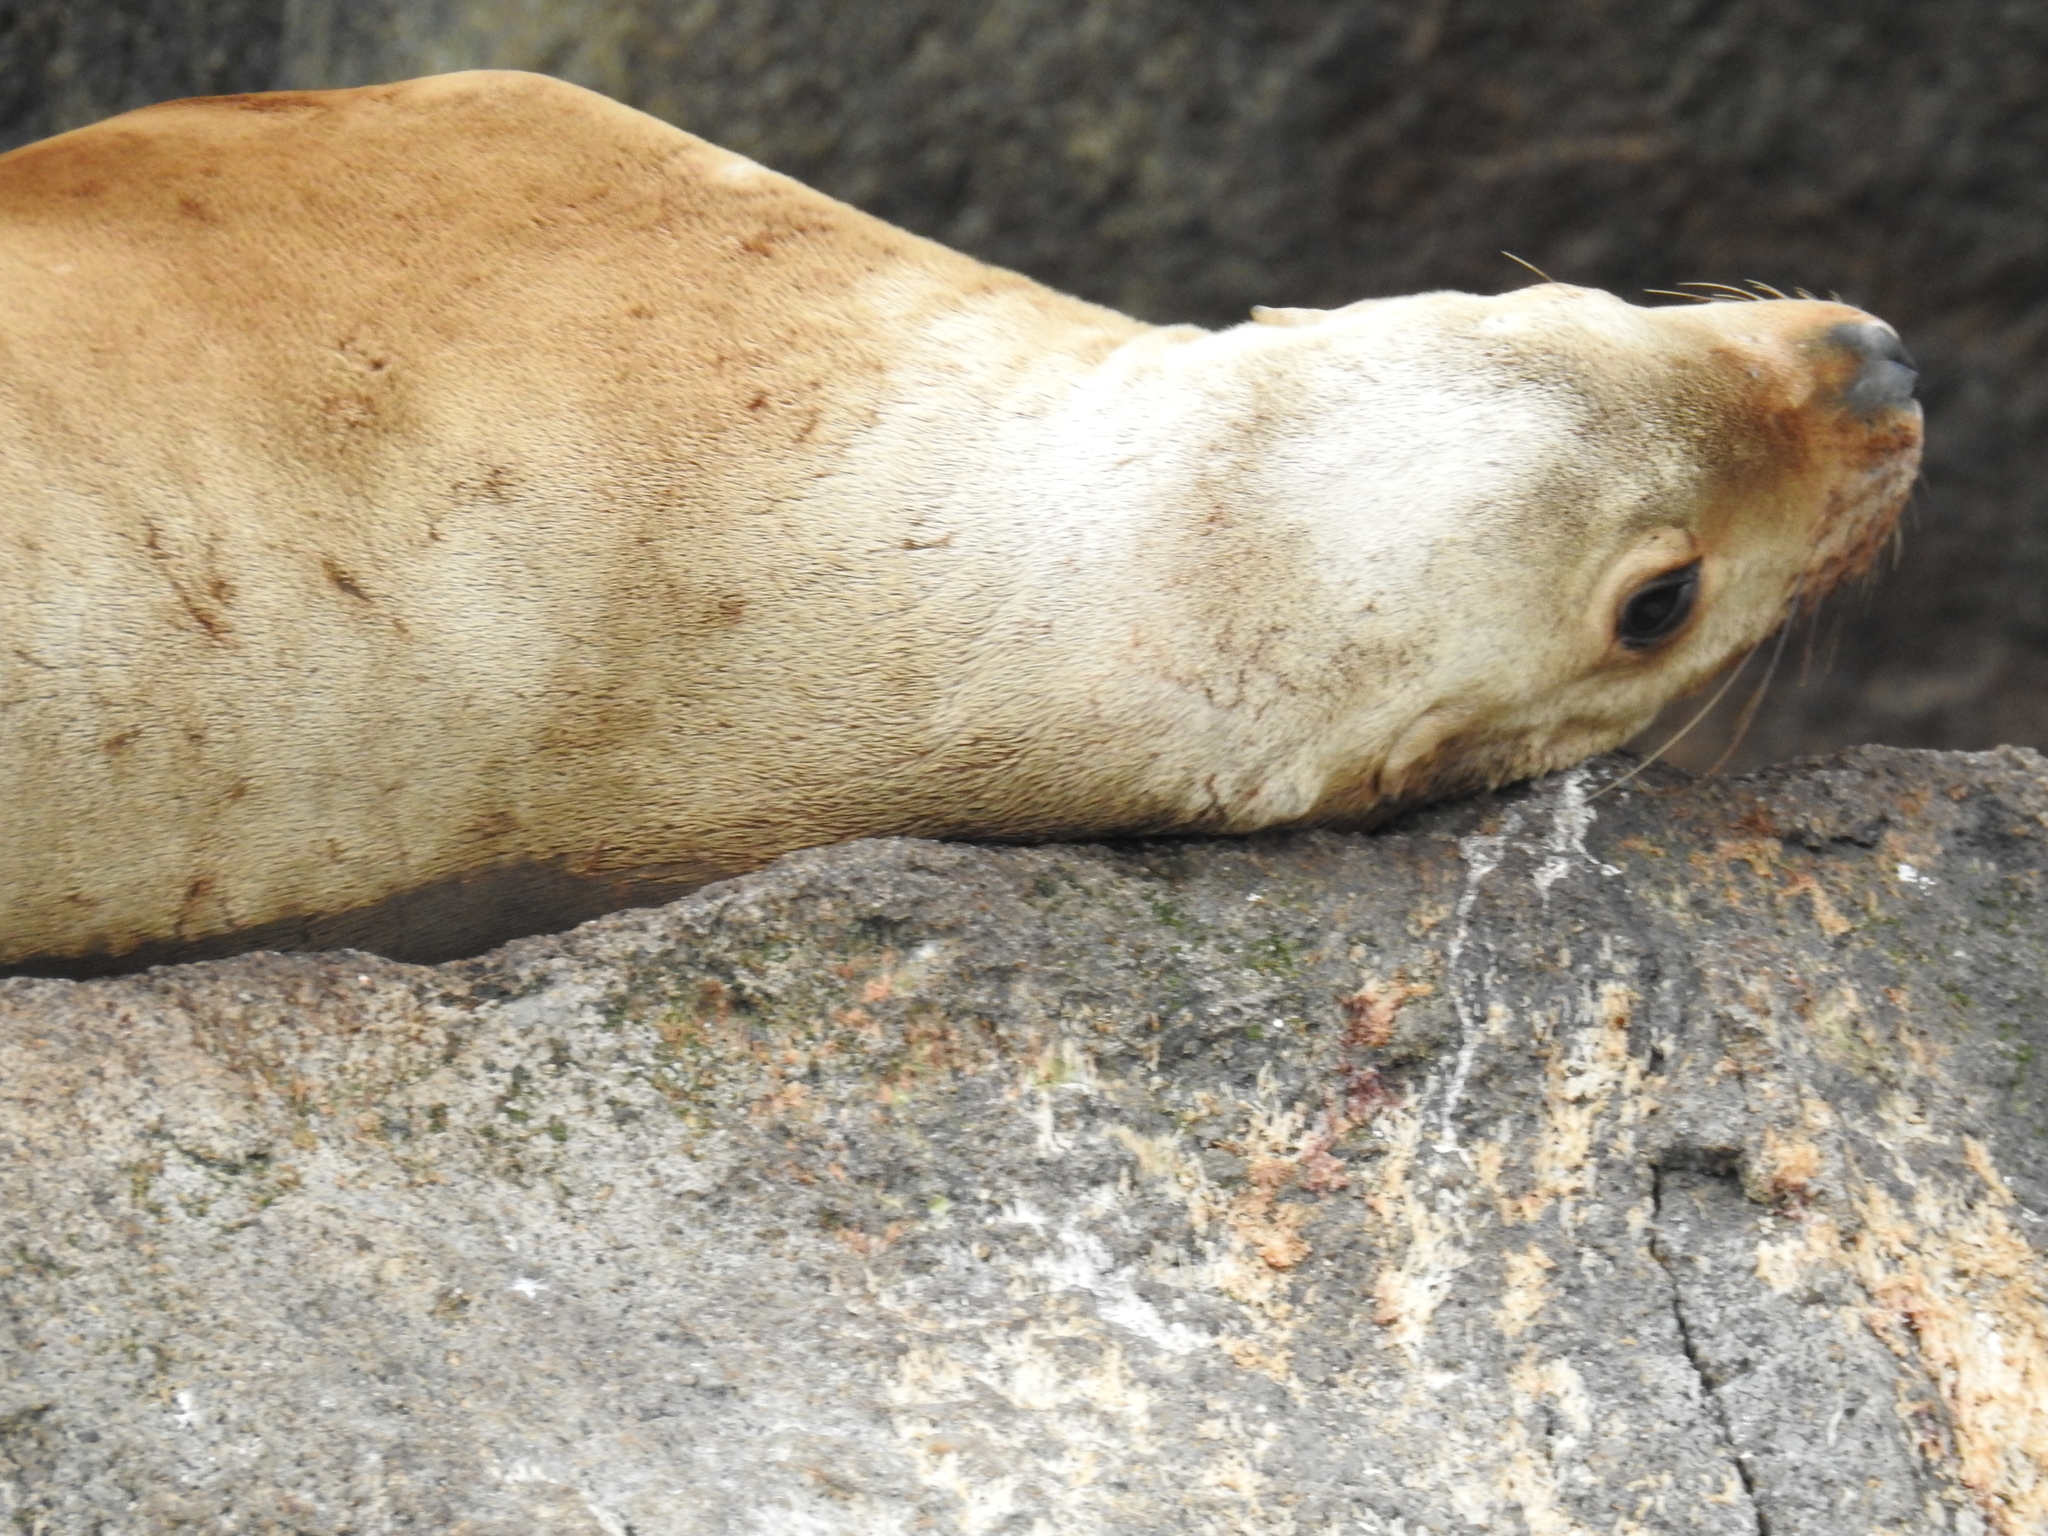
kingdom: Animalia
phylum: Chordata
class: Mammalia
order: Carnivora
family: Otariidae
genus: Eumetopias
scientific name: Eumetopias jubatus
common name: Steller sea lion
